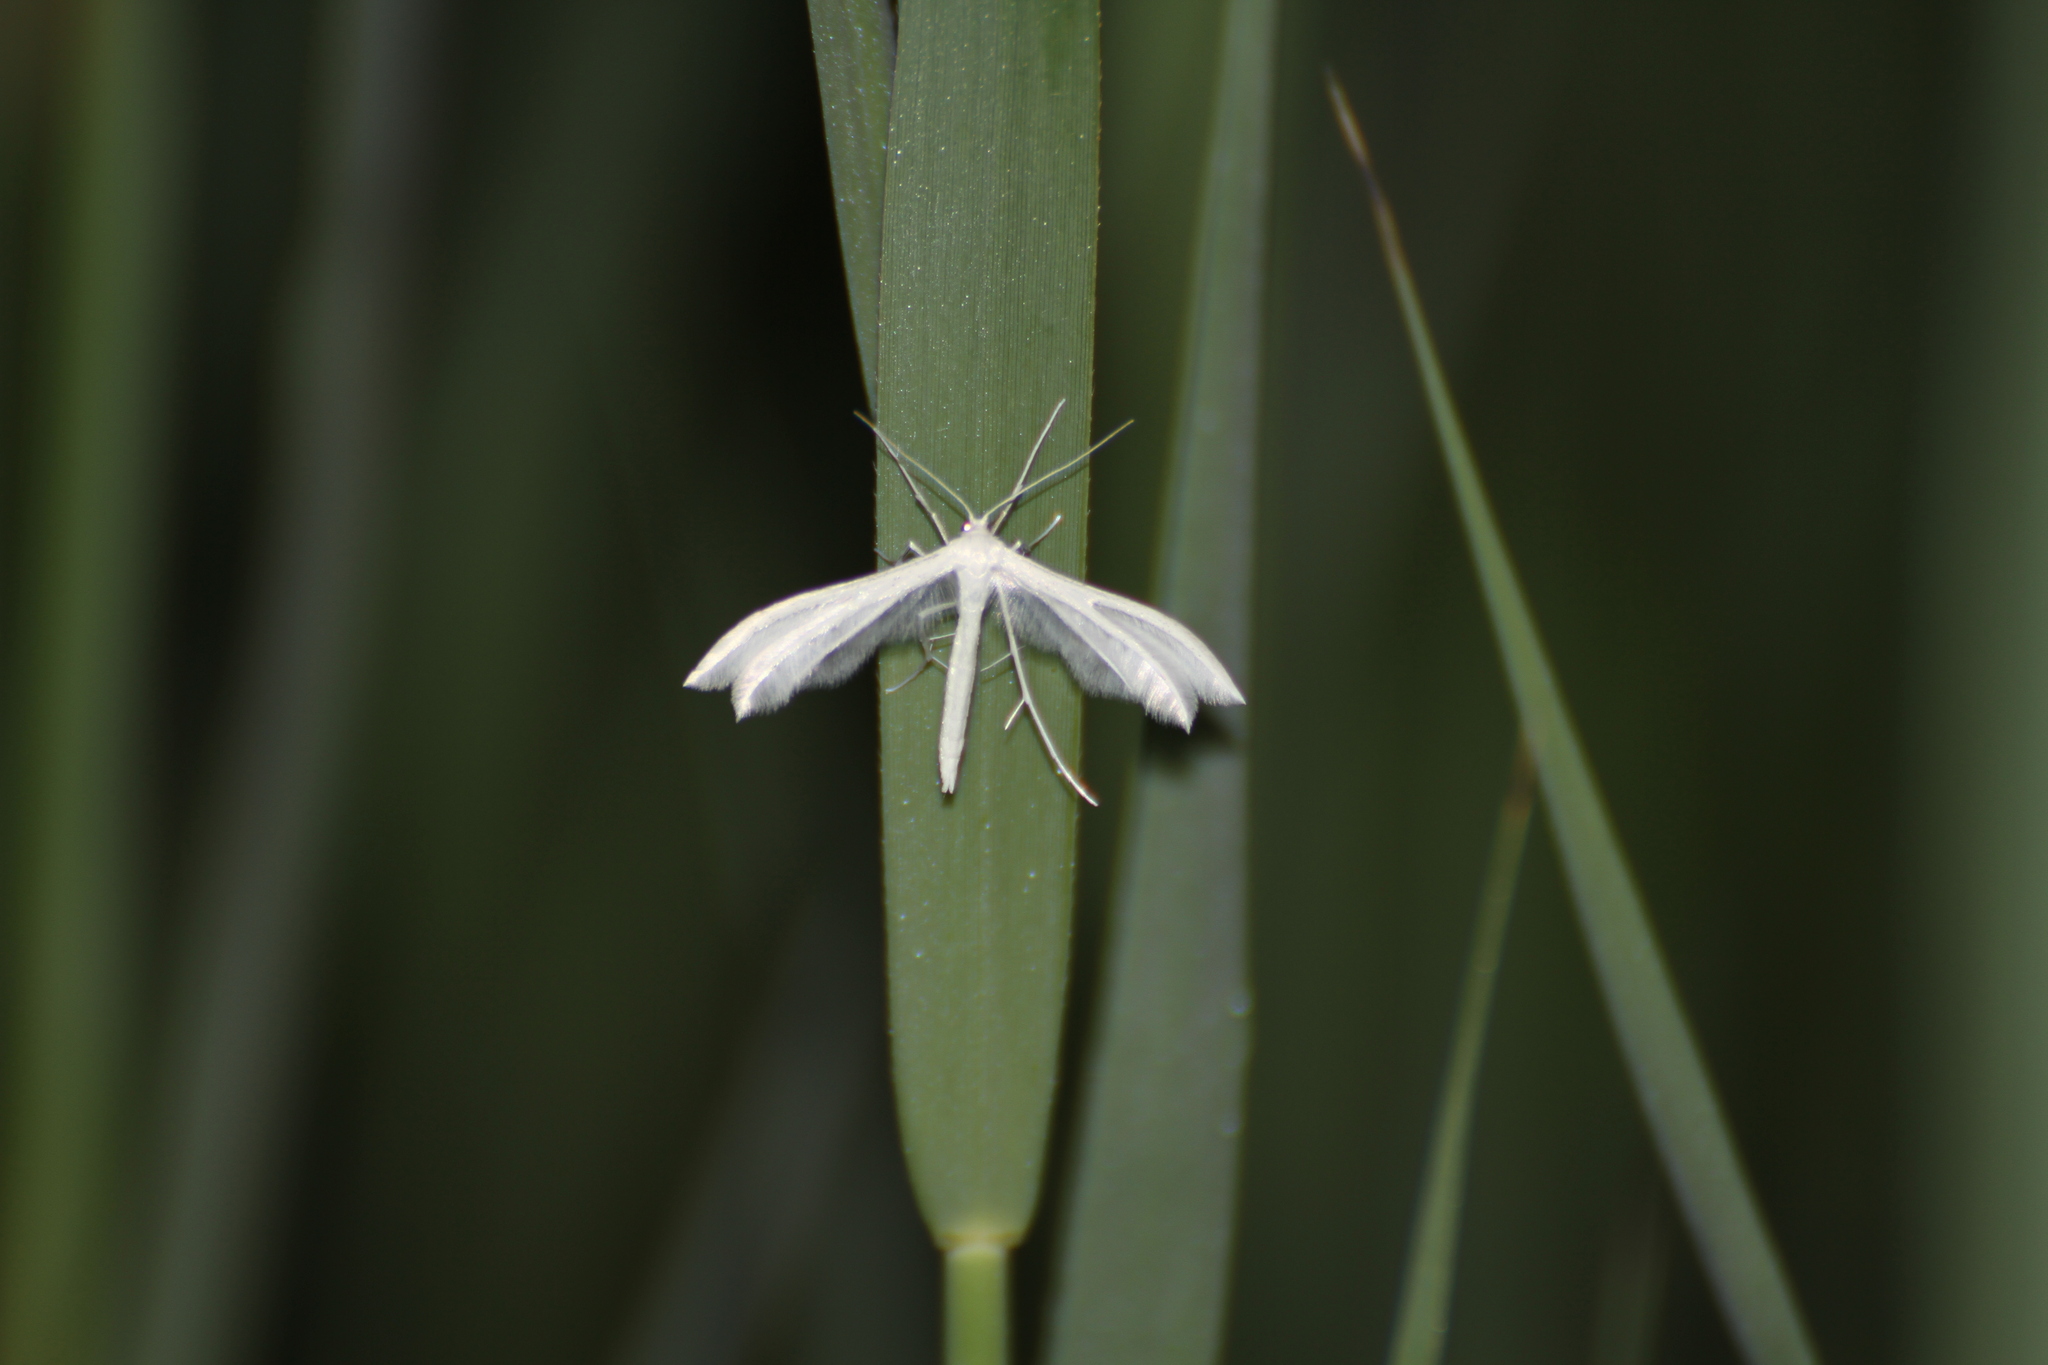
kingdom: Animalia
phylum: Arthropoda
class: Insecta
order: Lepidoptera
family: Pterophoridae
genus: Pterophorus
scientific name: Pterophorus pentadactyla
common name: White plume moth
